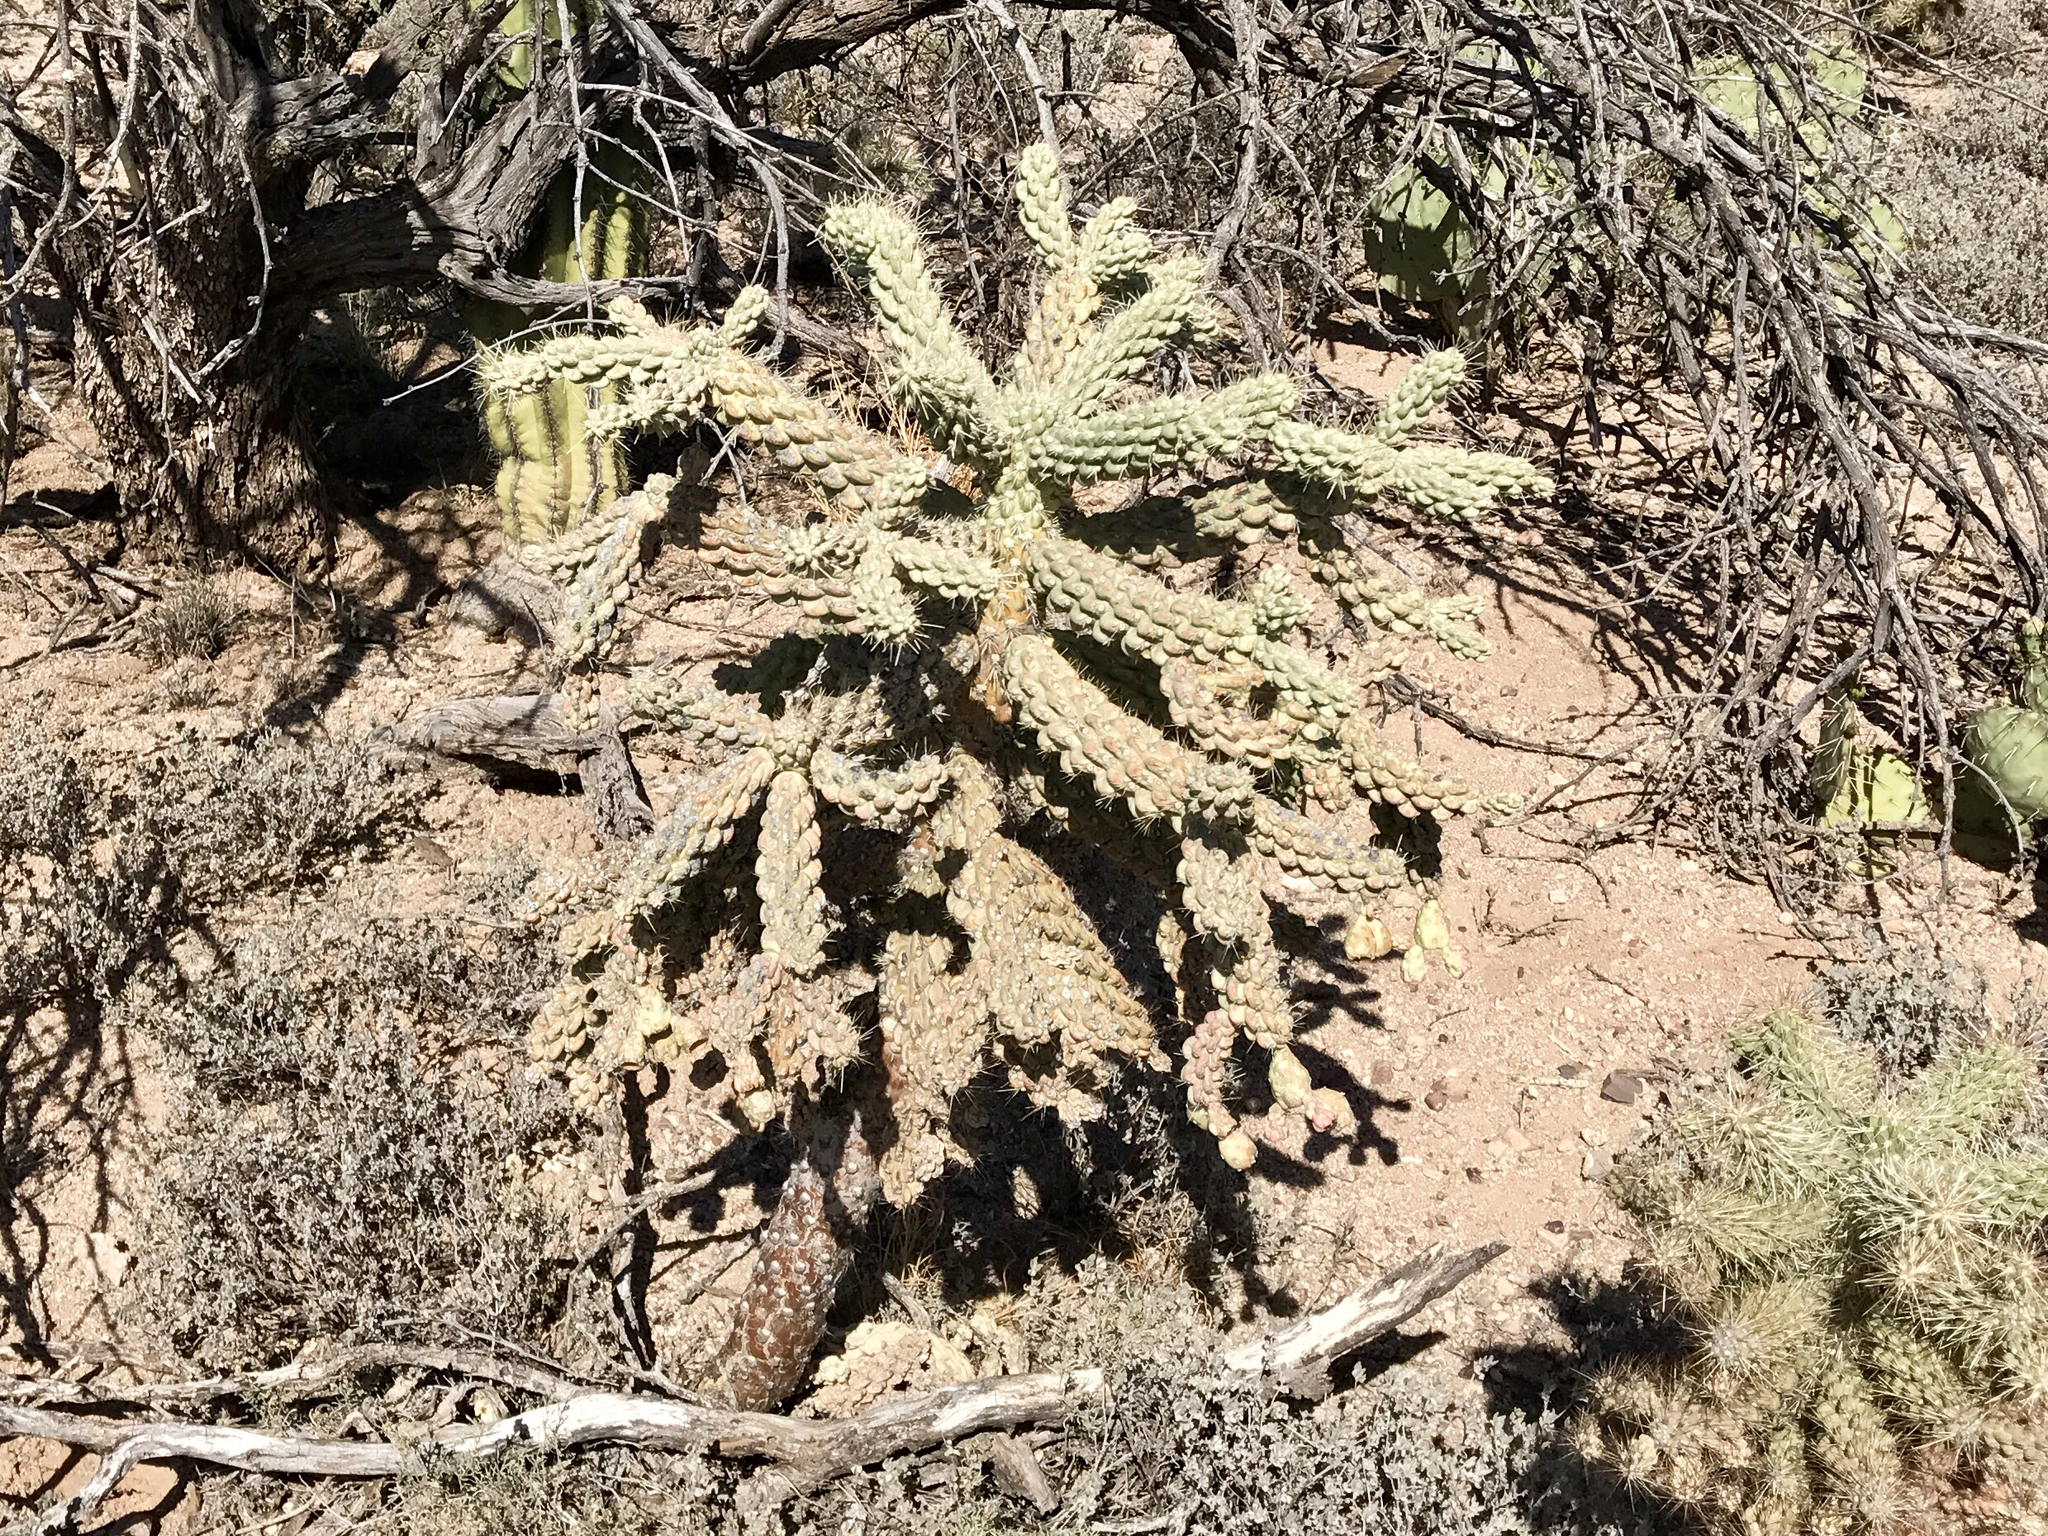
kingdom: Plantae
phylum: Tracheophyta
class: Magnoliopsida
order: Caryophyllales
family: Cactaceae
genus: Cylindropuntia
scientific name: Cylindropuntia fulgida
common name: Jumping cholla
